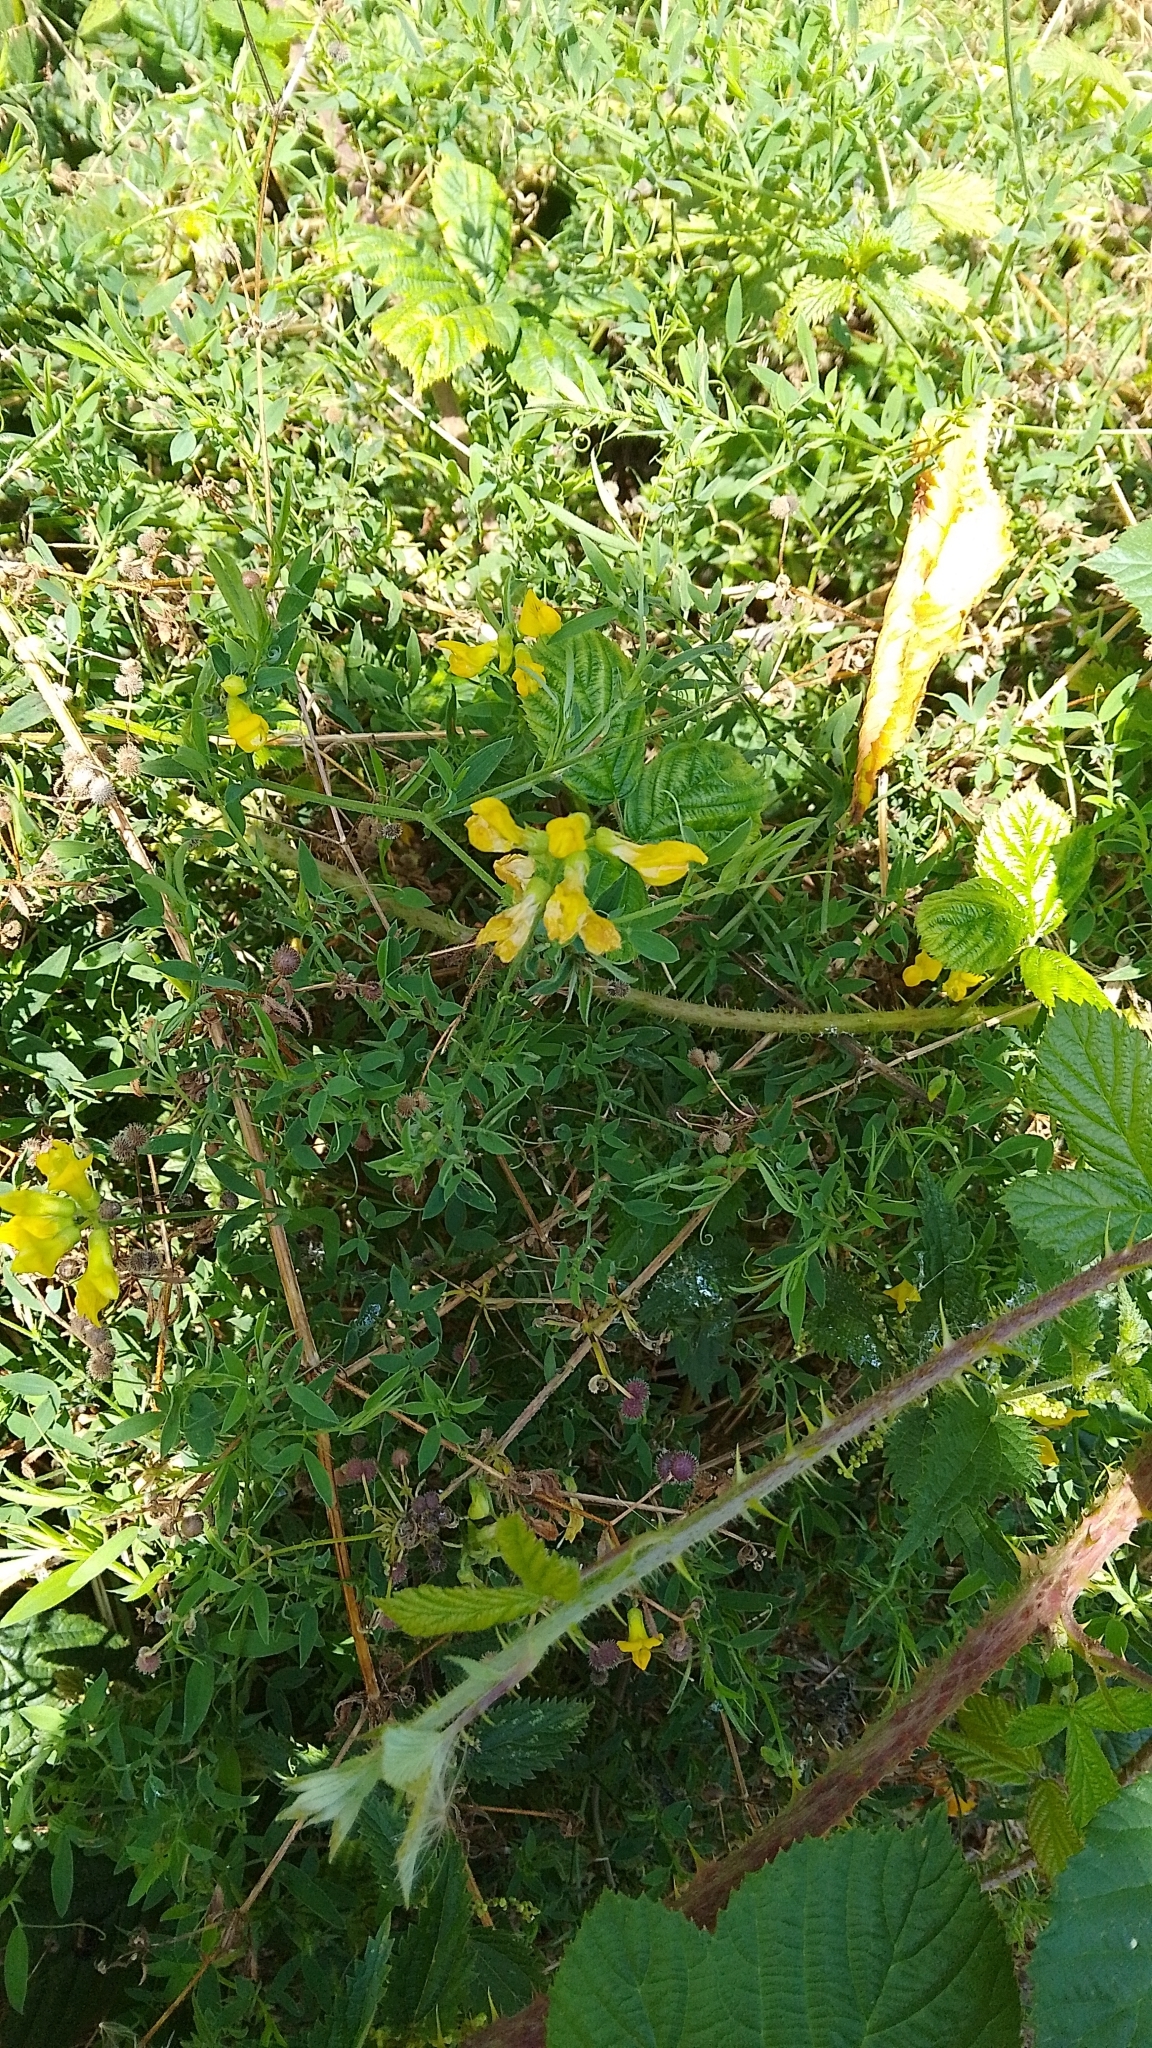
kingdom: Plantae
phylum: Tracheophyta
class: Magnoliopsida
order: Fabales
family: Fabaceae
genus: Lathyrus
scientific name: Lathyrus pratensis
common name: Meadow vetchling
